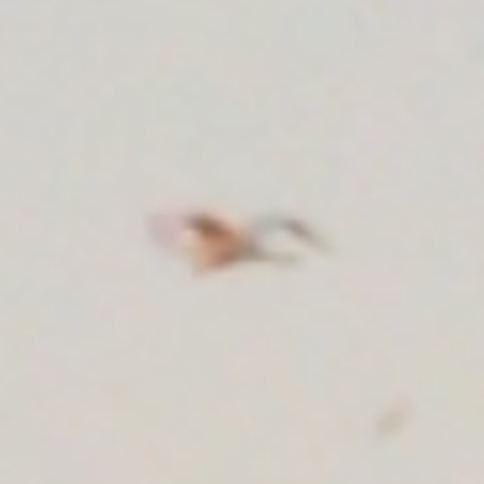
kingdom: Animalia
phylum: Chordata
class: Aves
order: Pelecaniformes
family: Ardeidae
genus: Ardea
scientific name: Ardea alba
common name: Great egret
